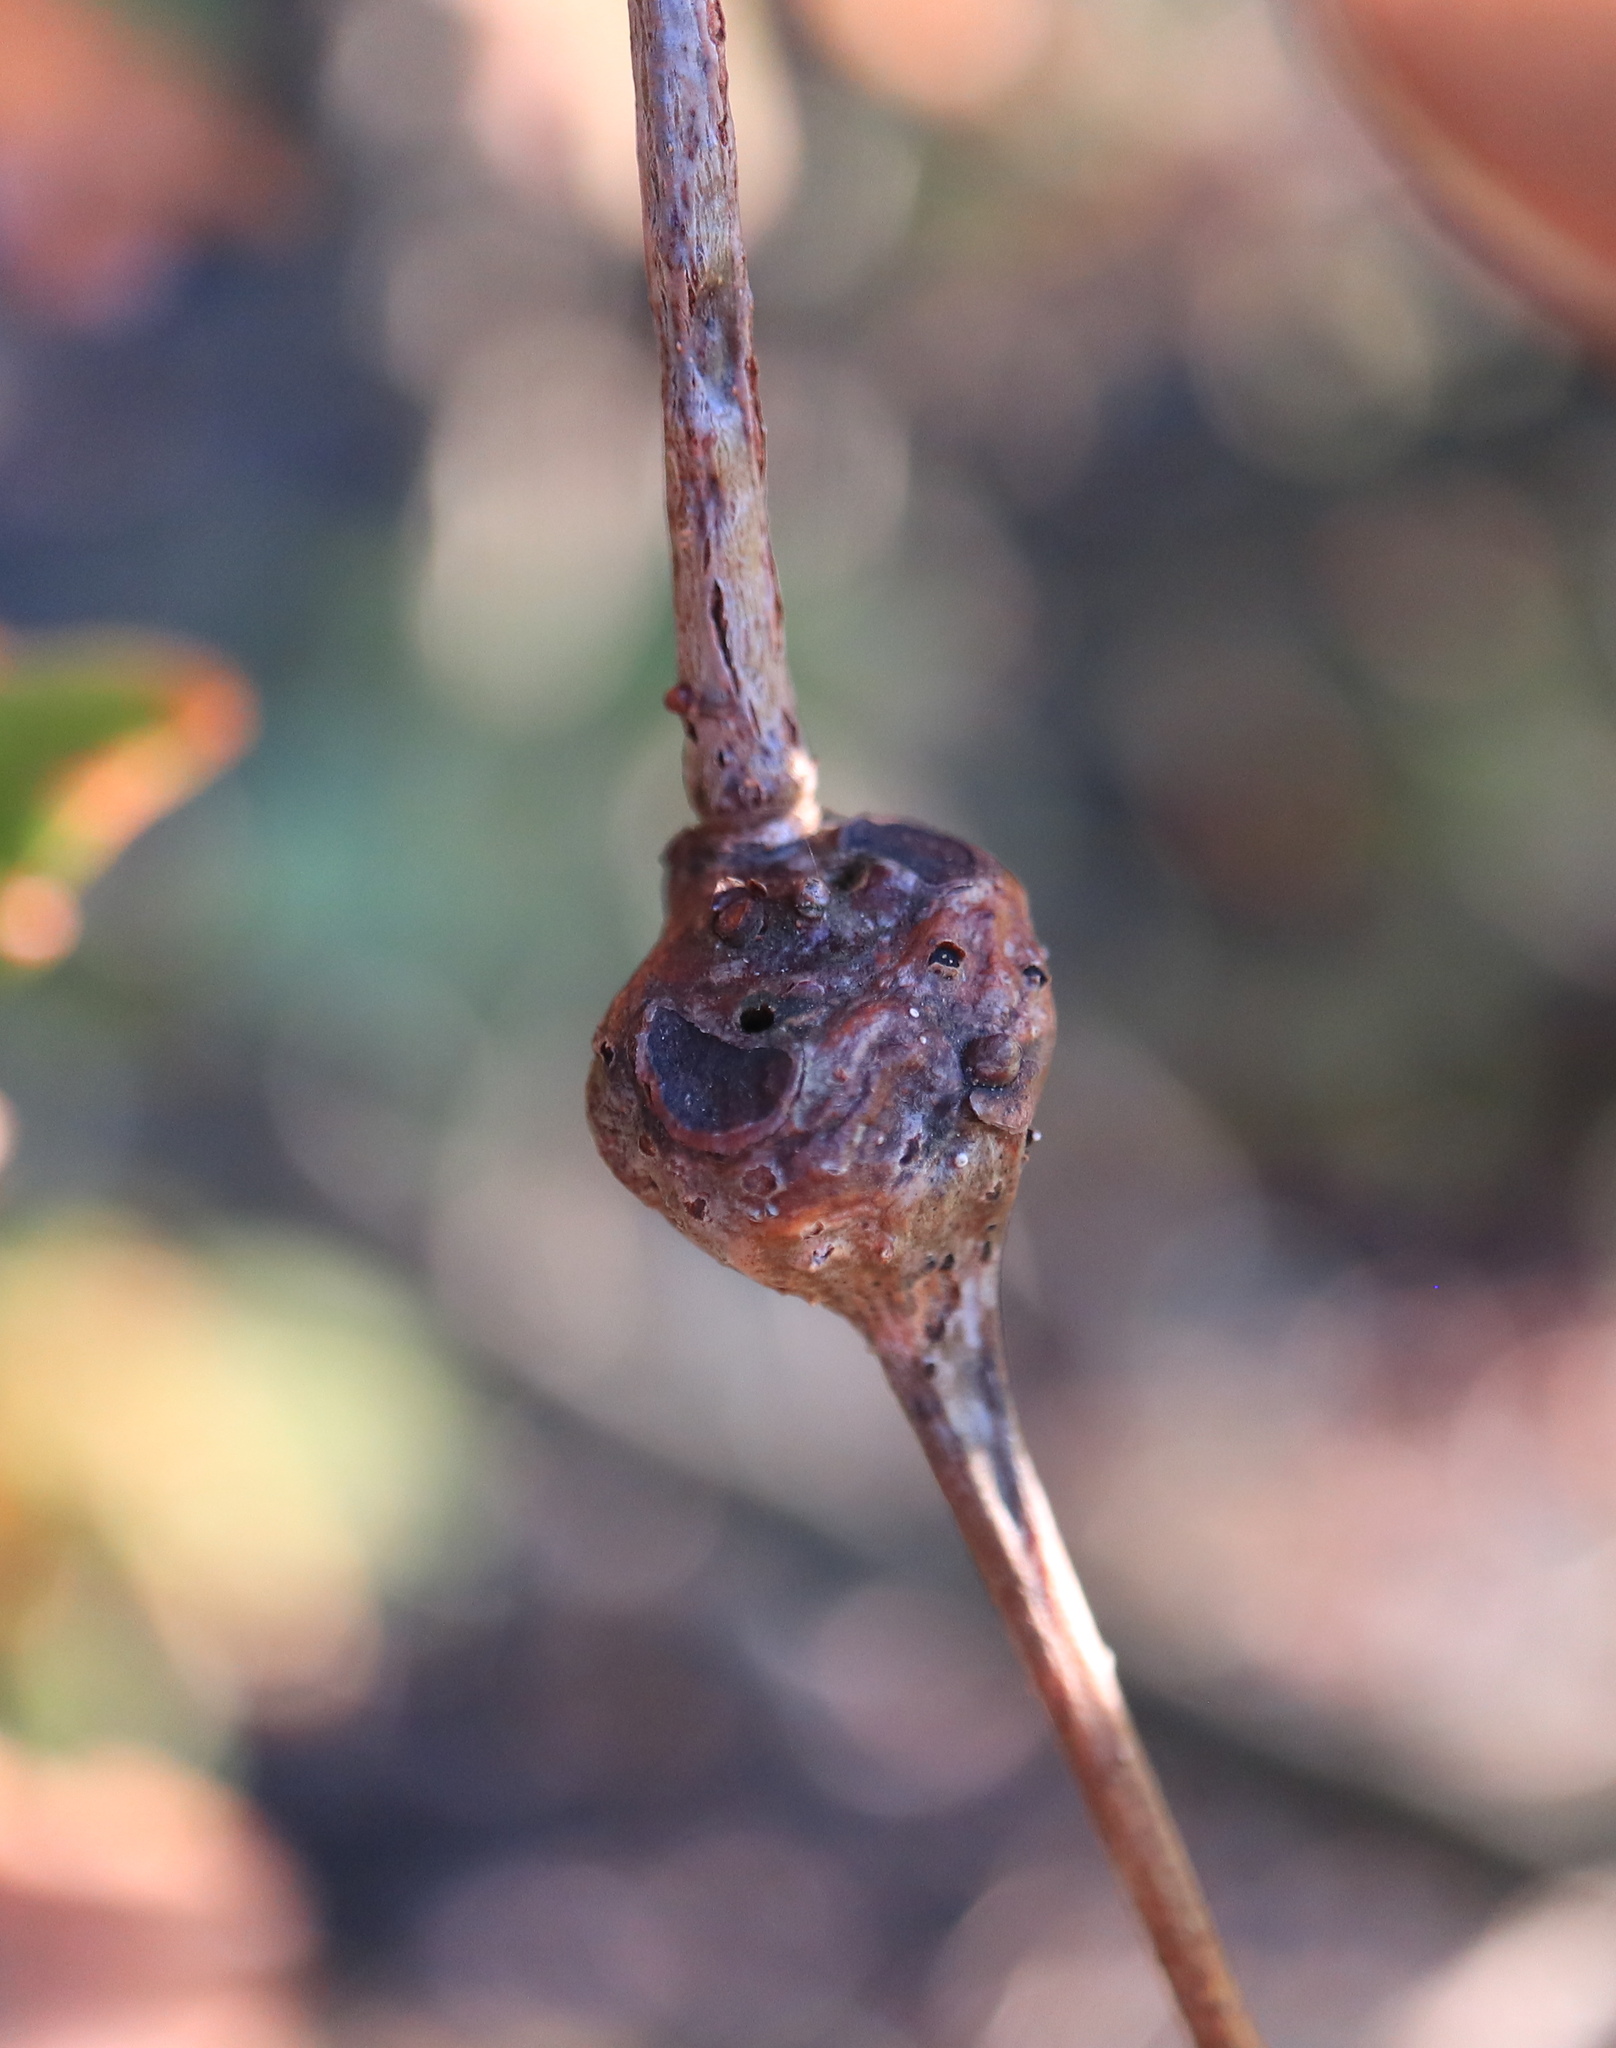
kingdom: Animalia
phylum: Arthropoda
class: Insecta
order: Hymenoptera
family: Cynipidae
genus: Callirhytis
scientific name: Callirhytis clavula
